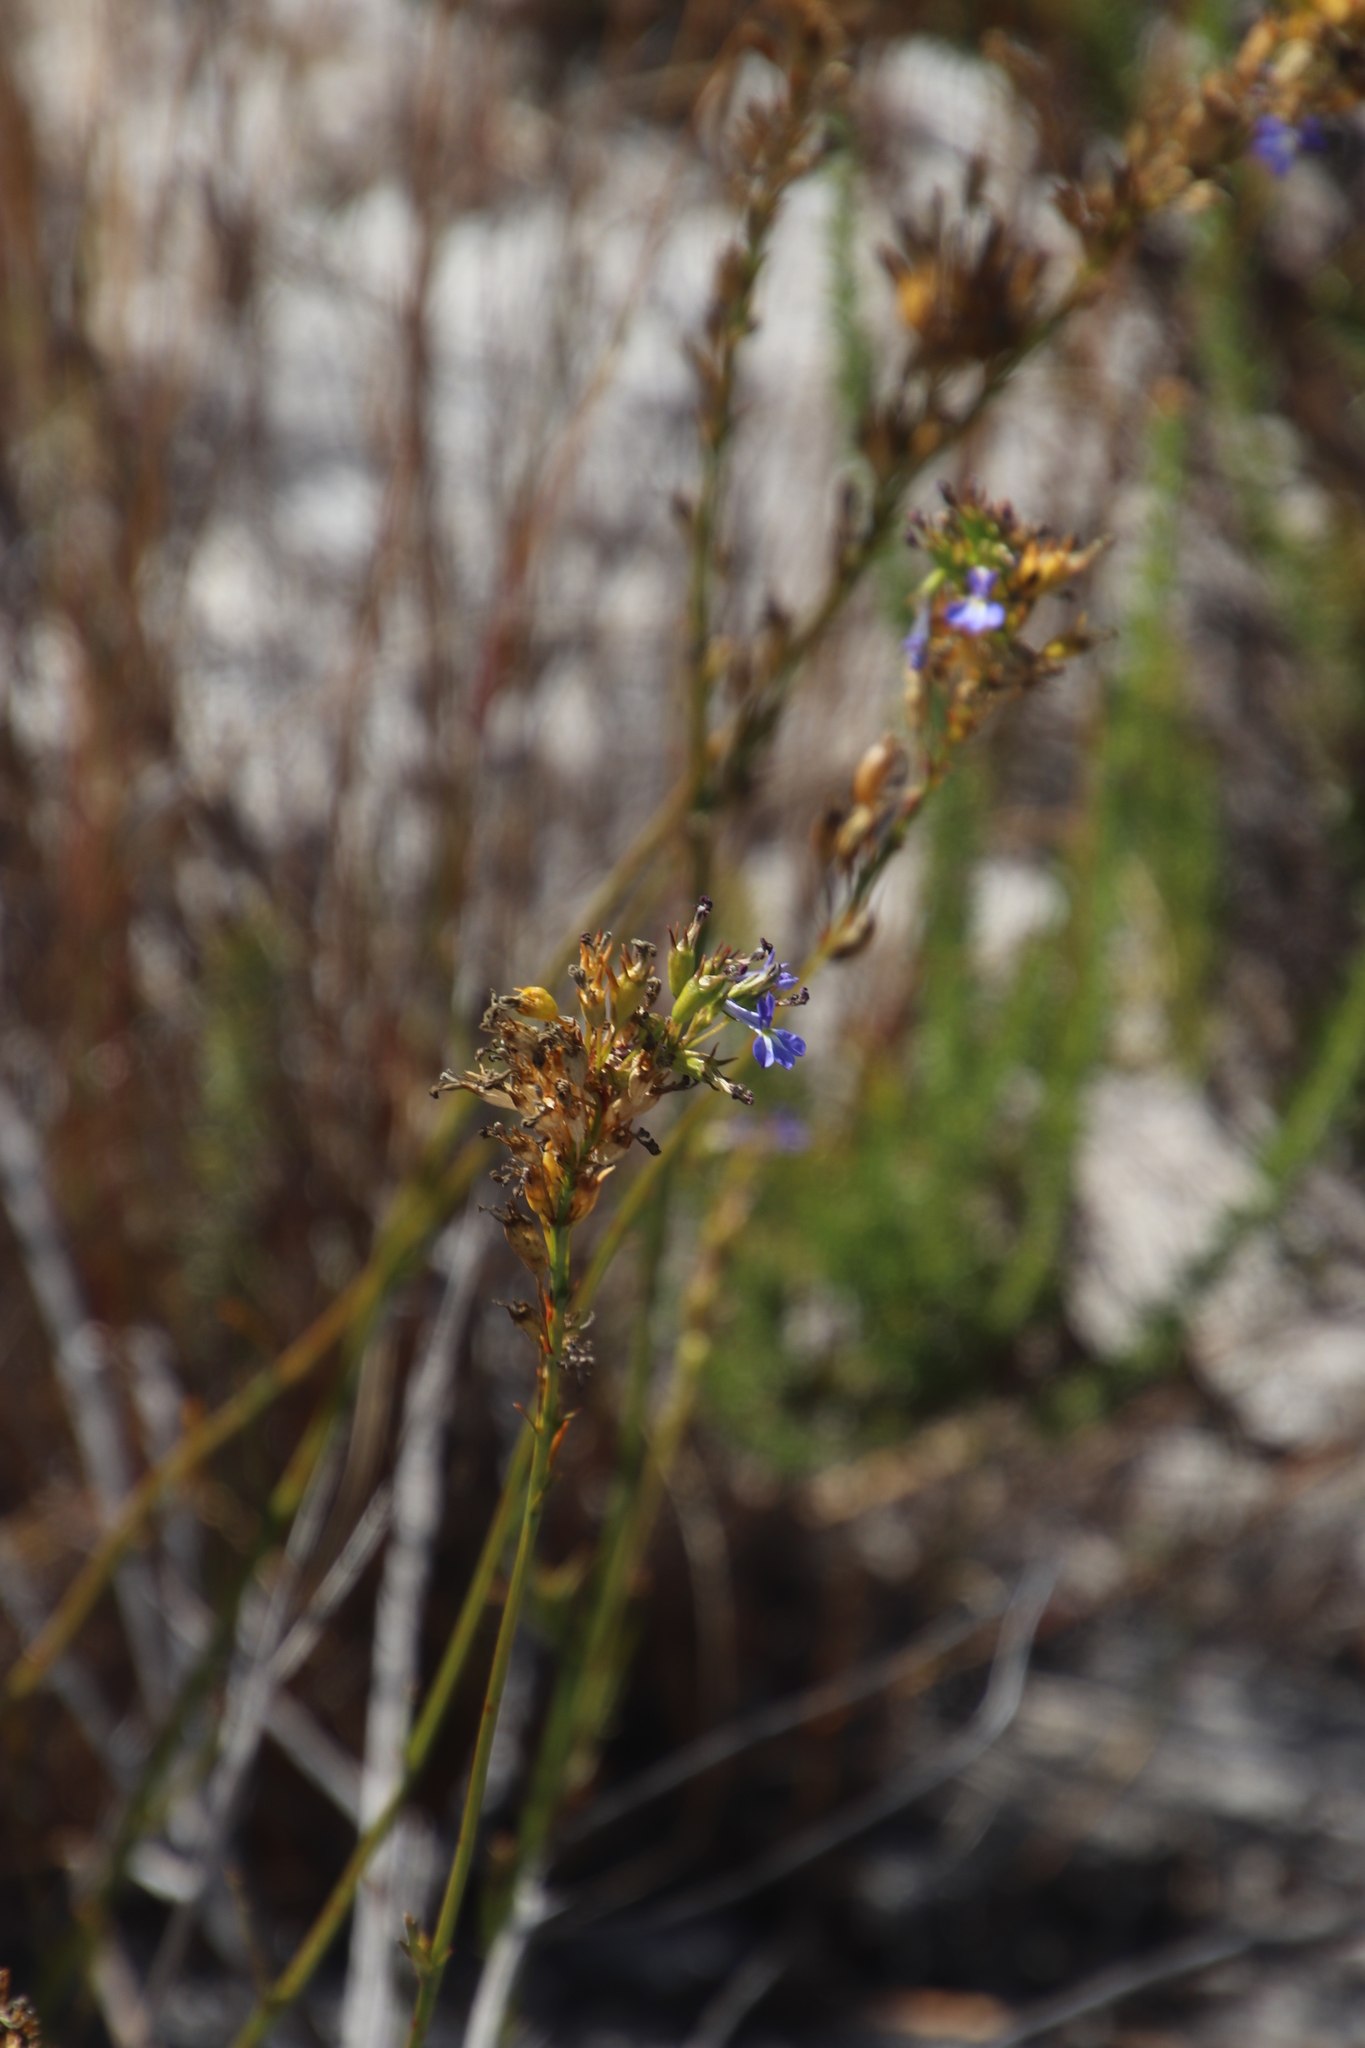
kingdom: Plantae
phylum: Tracheophyta
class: Magnoliopsida
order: Asterales
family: Campanulaceae
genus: Lobelia
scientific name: Lobelia comosa
